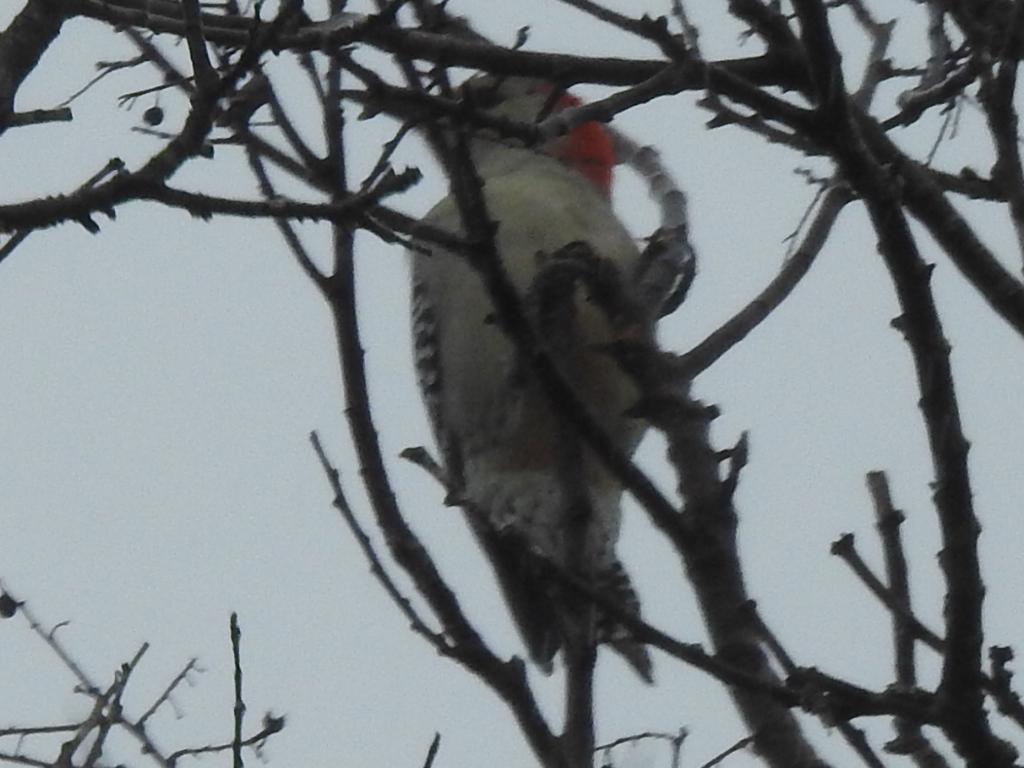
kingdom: Animalia
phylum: Chordata
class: Aves
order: Piciformes
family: Picidae
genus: Melanerpes
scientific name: Melanerpes carolinus
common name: Red-bellied woodpecker
